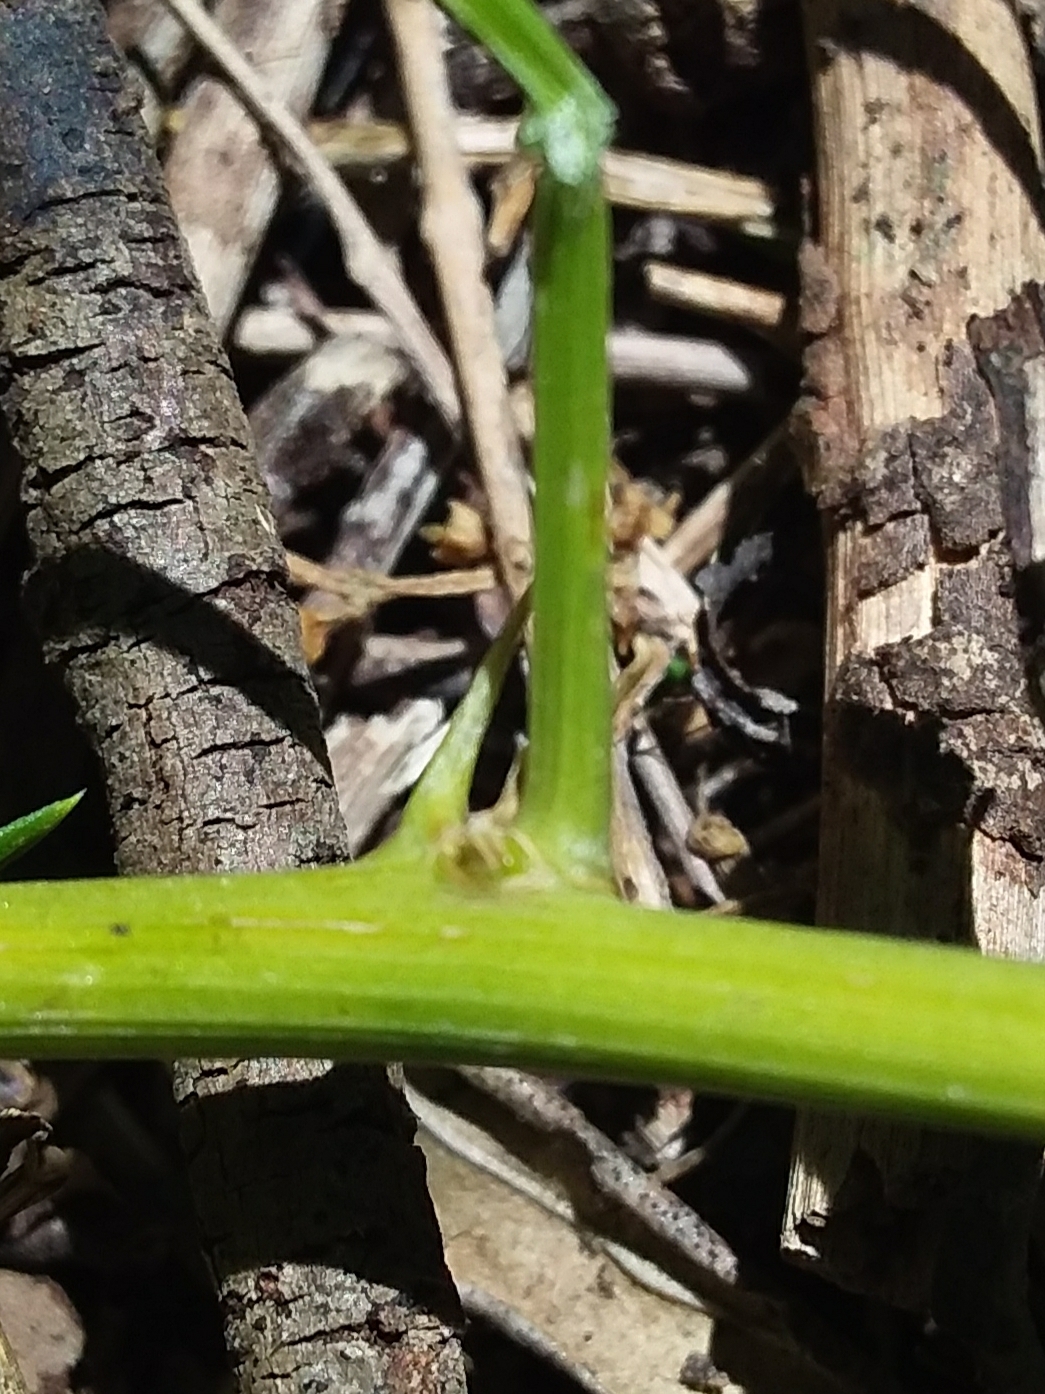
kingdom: Plantae
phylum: Tracheophyta
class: Liliopsida
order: Asparagales
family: Asparagaceae
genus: Asparagus
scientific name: Asparagus aethiopicus
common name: Sprenger's asparagus fern
